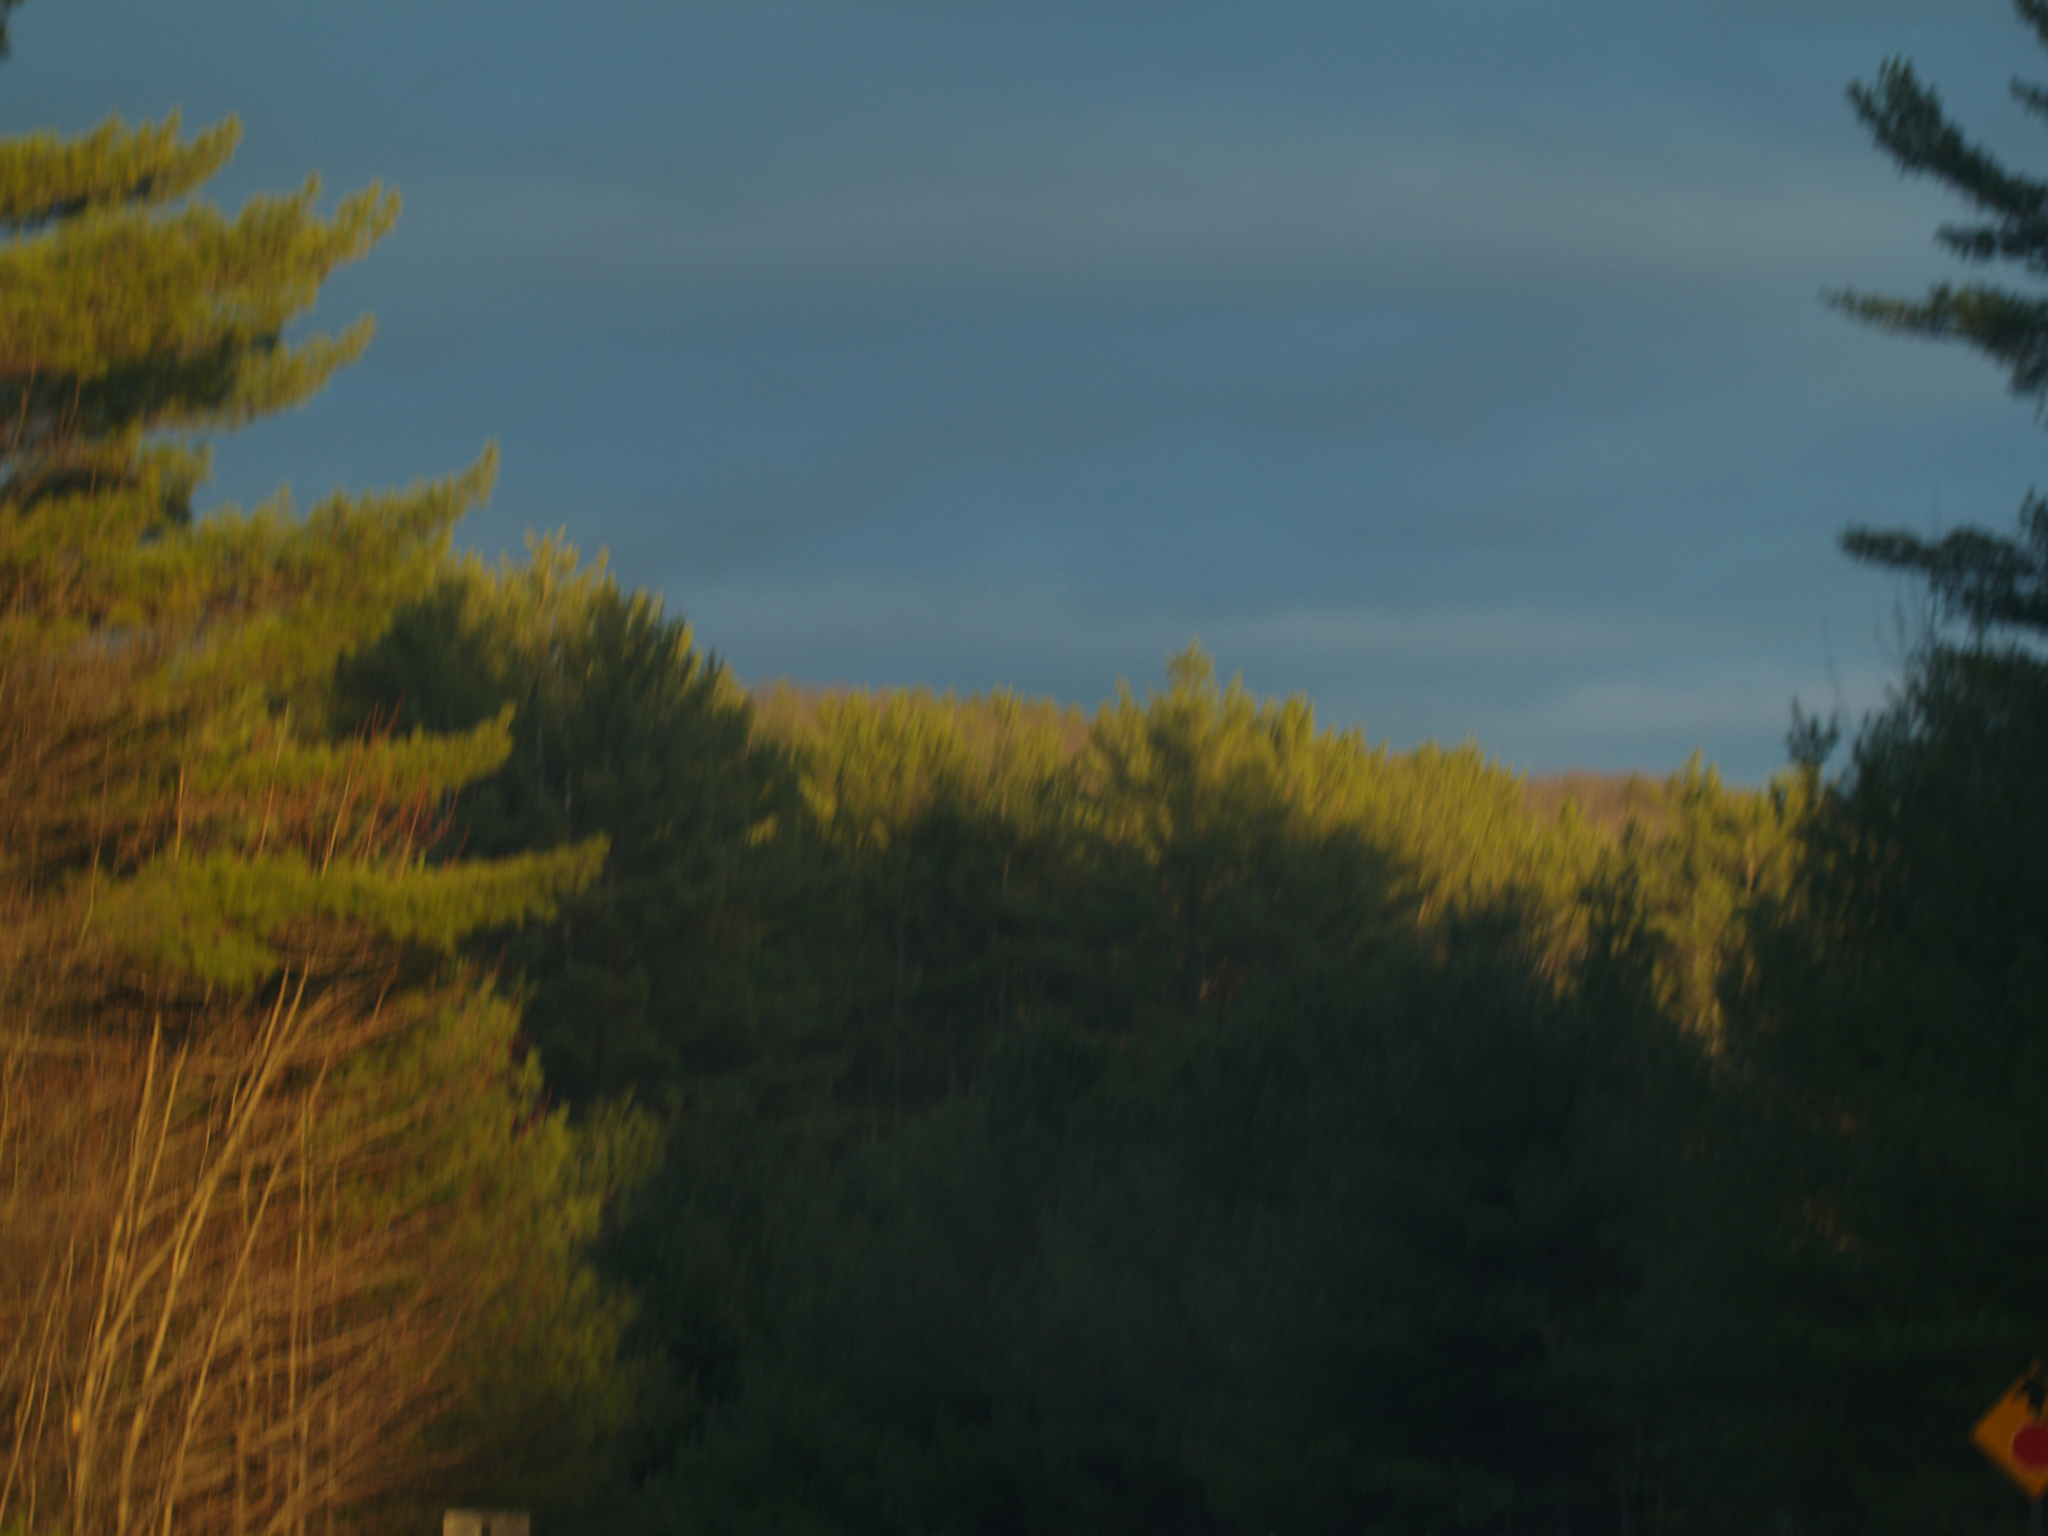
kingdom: Plantae
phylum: Tracheophyta
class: Pinopsida
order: Pinales
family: Pinaceae
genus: Pinus
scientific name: Pinus strobus
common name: Weymouth pine
